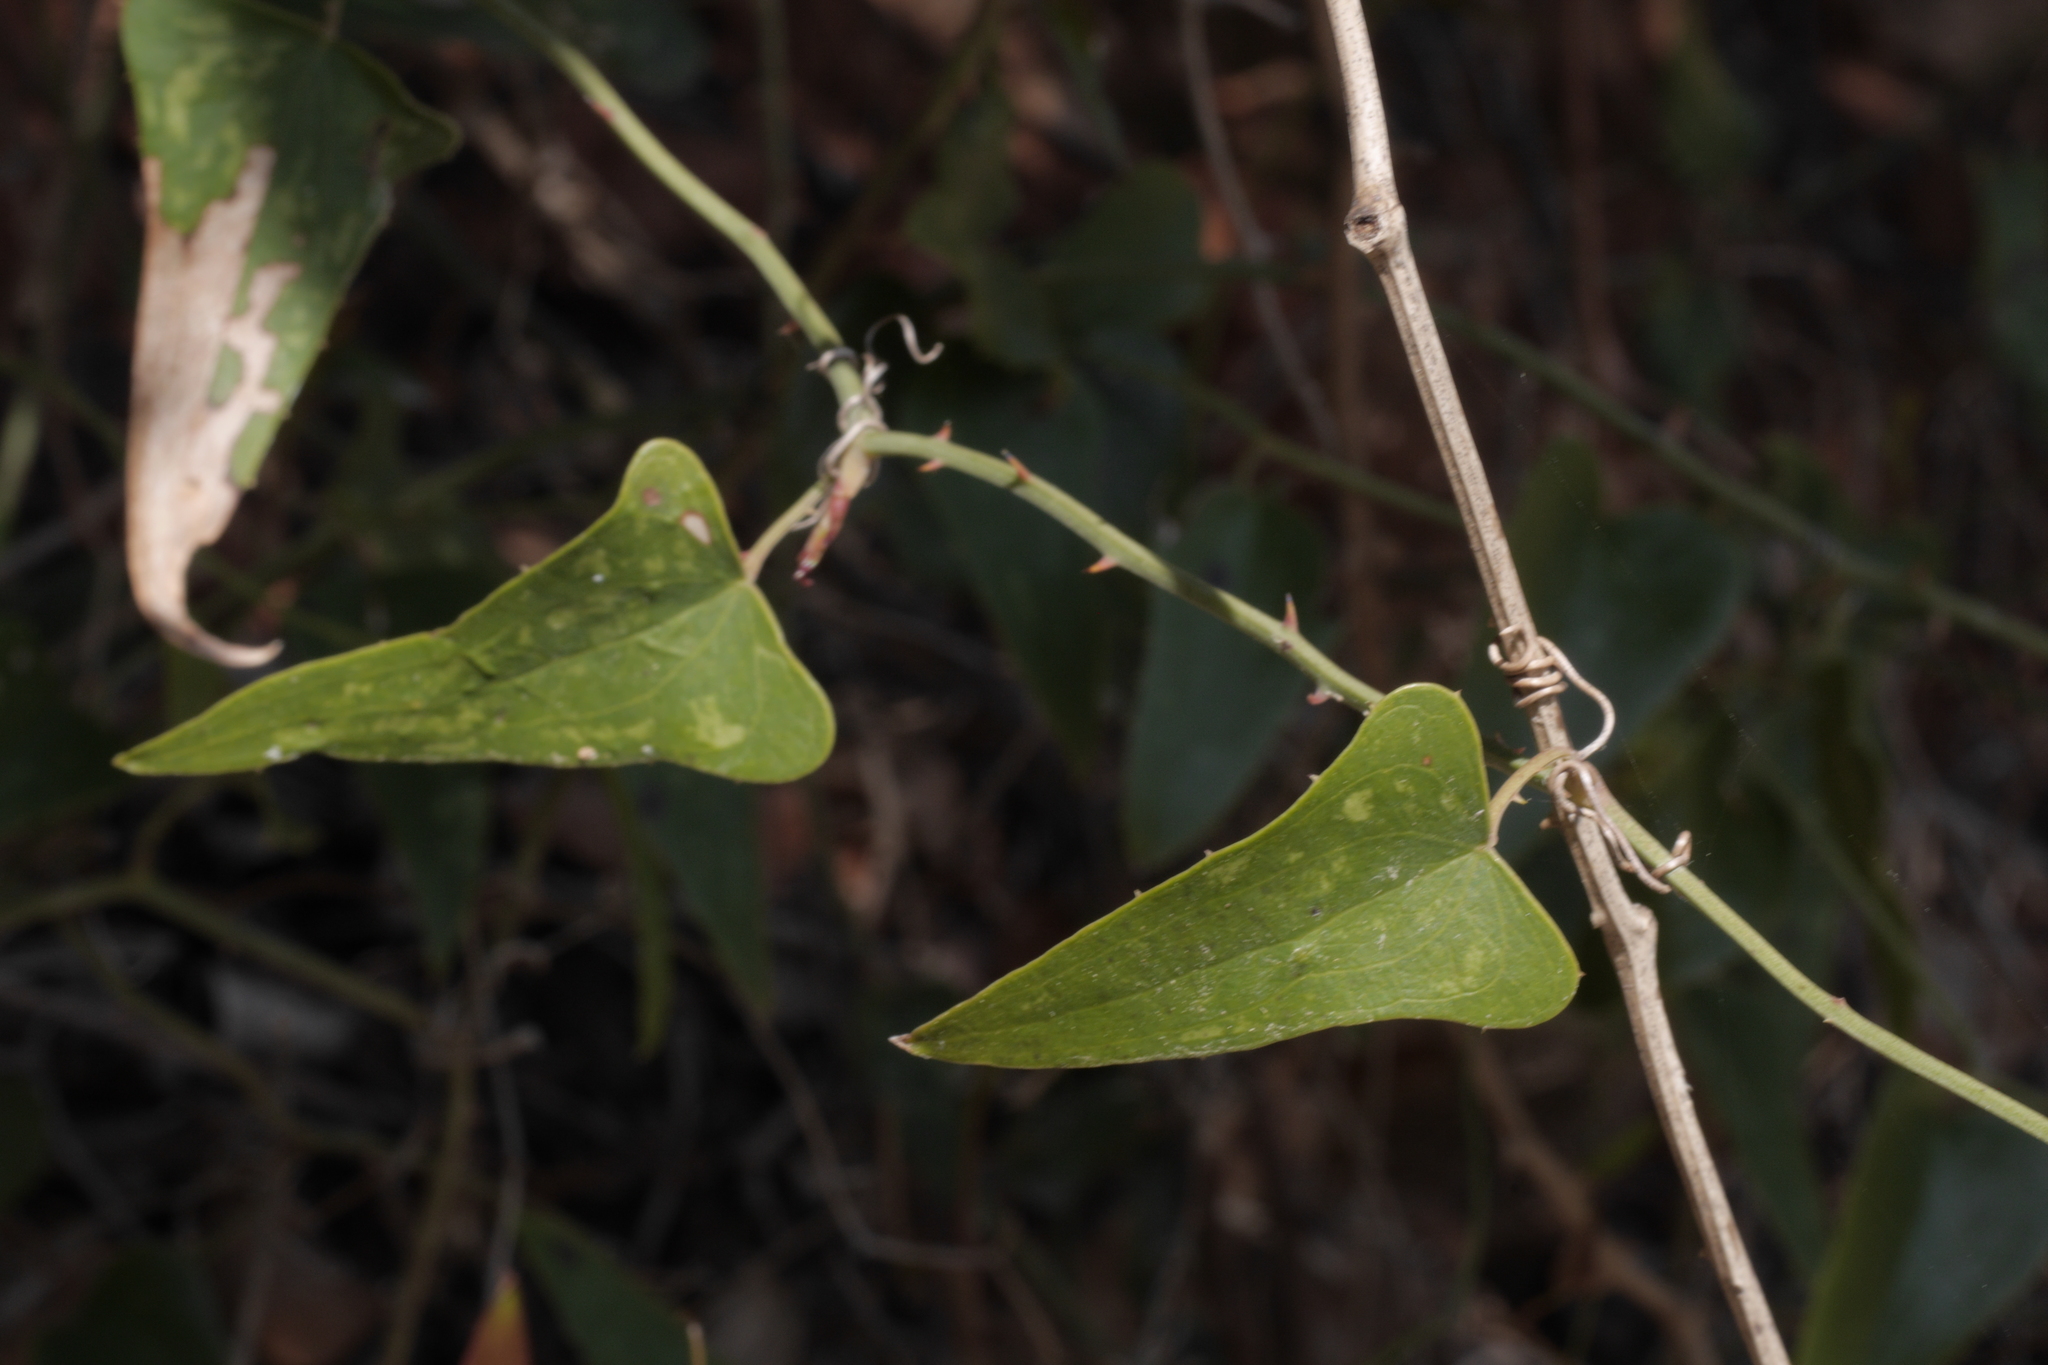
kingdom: Plantae
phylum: Tracheophyta
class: Liliopsida
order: Liliales
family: Smilacaceae
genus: Smilax
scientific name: Smilax aspera
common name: Common smilax
